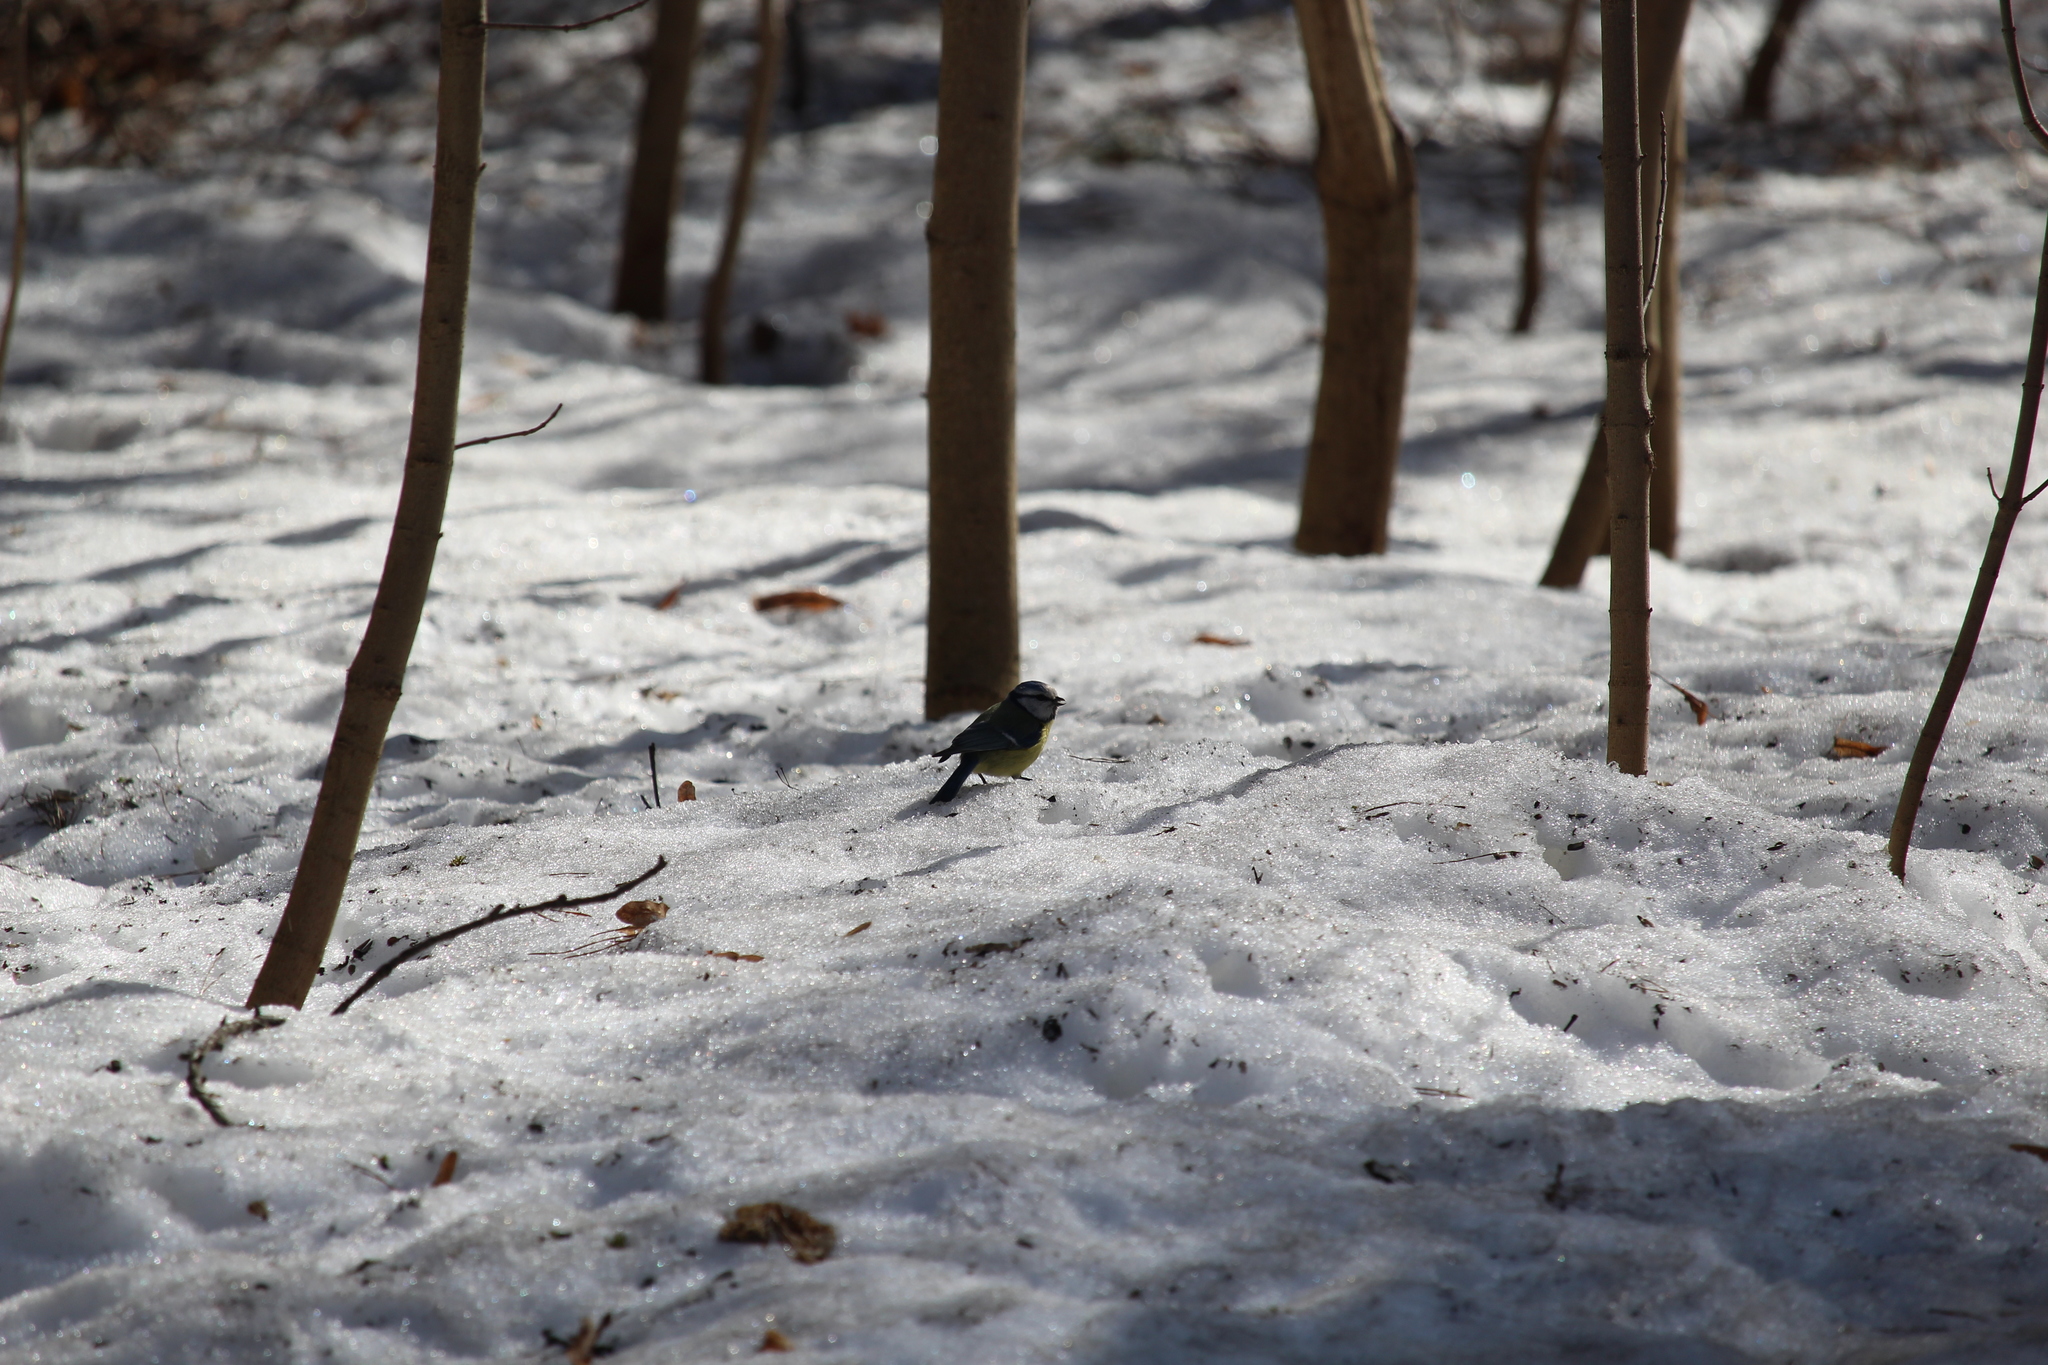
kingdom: Animalia
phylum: Chordata
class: Aves
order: Passeriformes
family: Paridae
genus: Cyanistes
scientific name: Cyanistes caeruleus
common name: Eurasian blue tit
